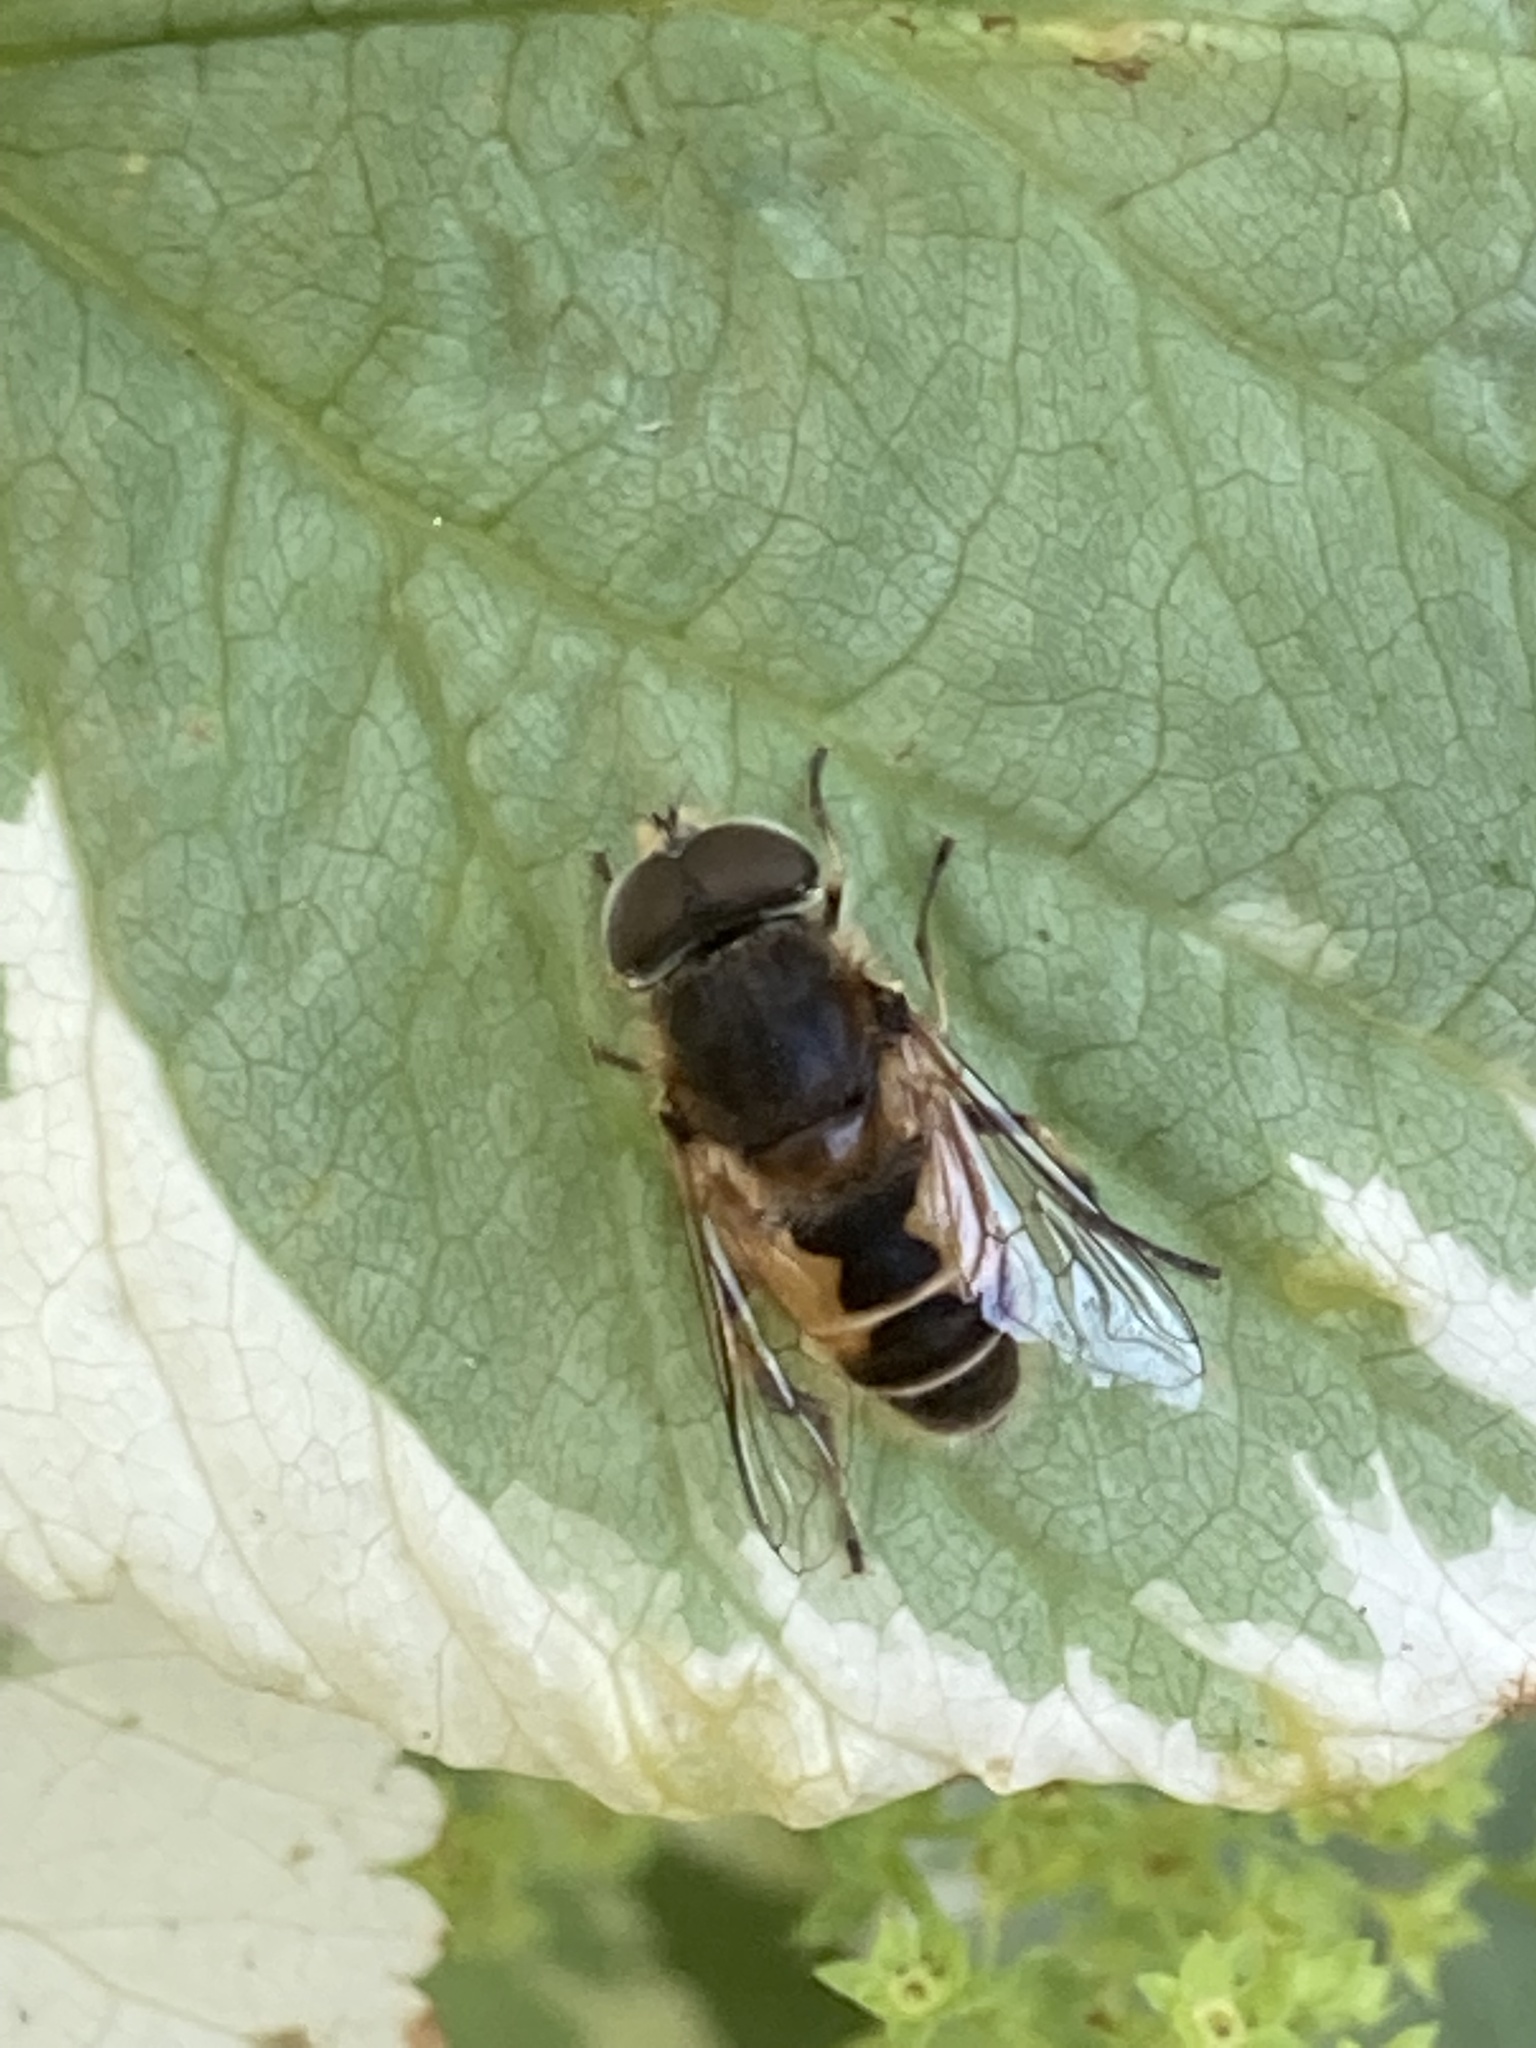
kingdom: Animalia
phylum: Arthropoda
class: Insecta
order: Diptera
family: Syrphidae
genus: Eristalis
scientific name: Eristalis arbustorum
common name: Hover fly
